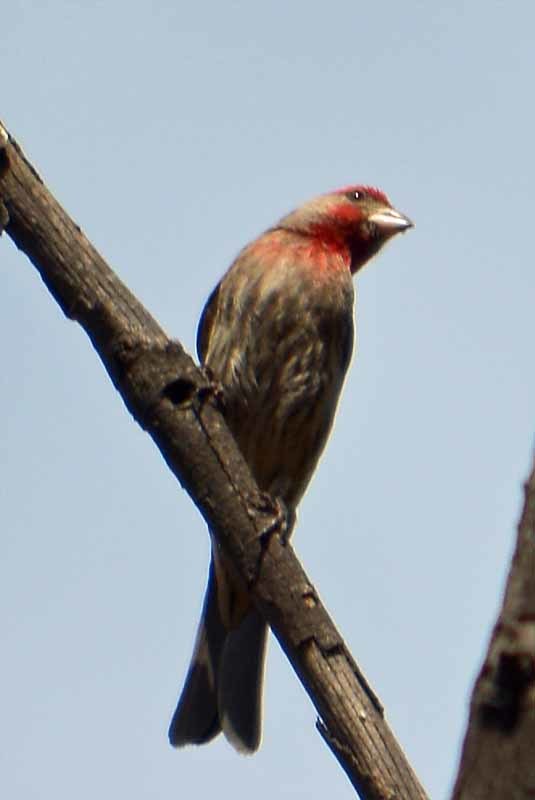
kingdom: Animalia
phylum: Chordata
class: Aves
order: Passeriformes
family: Fringillidae
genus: Haemorhous
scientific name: Haemorhous mexicanus
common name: House finch
